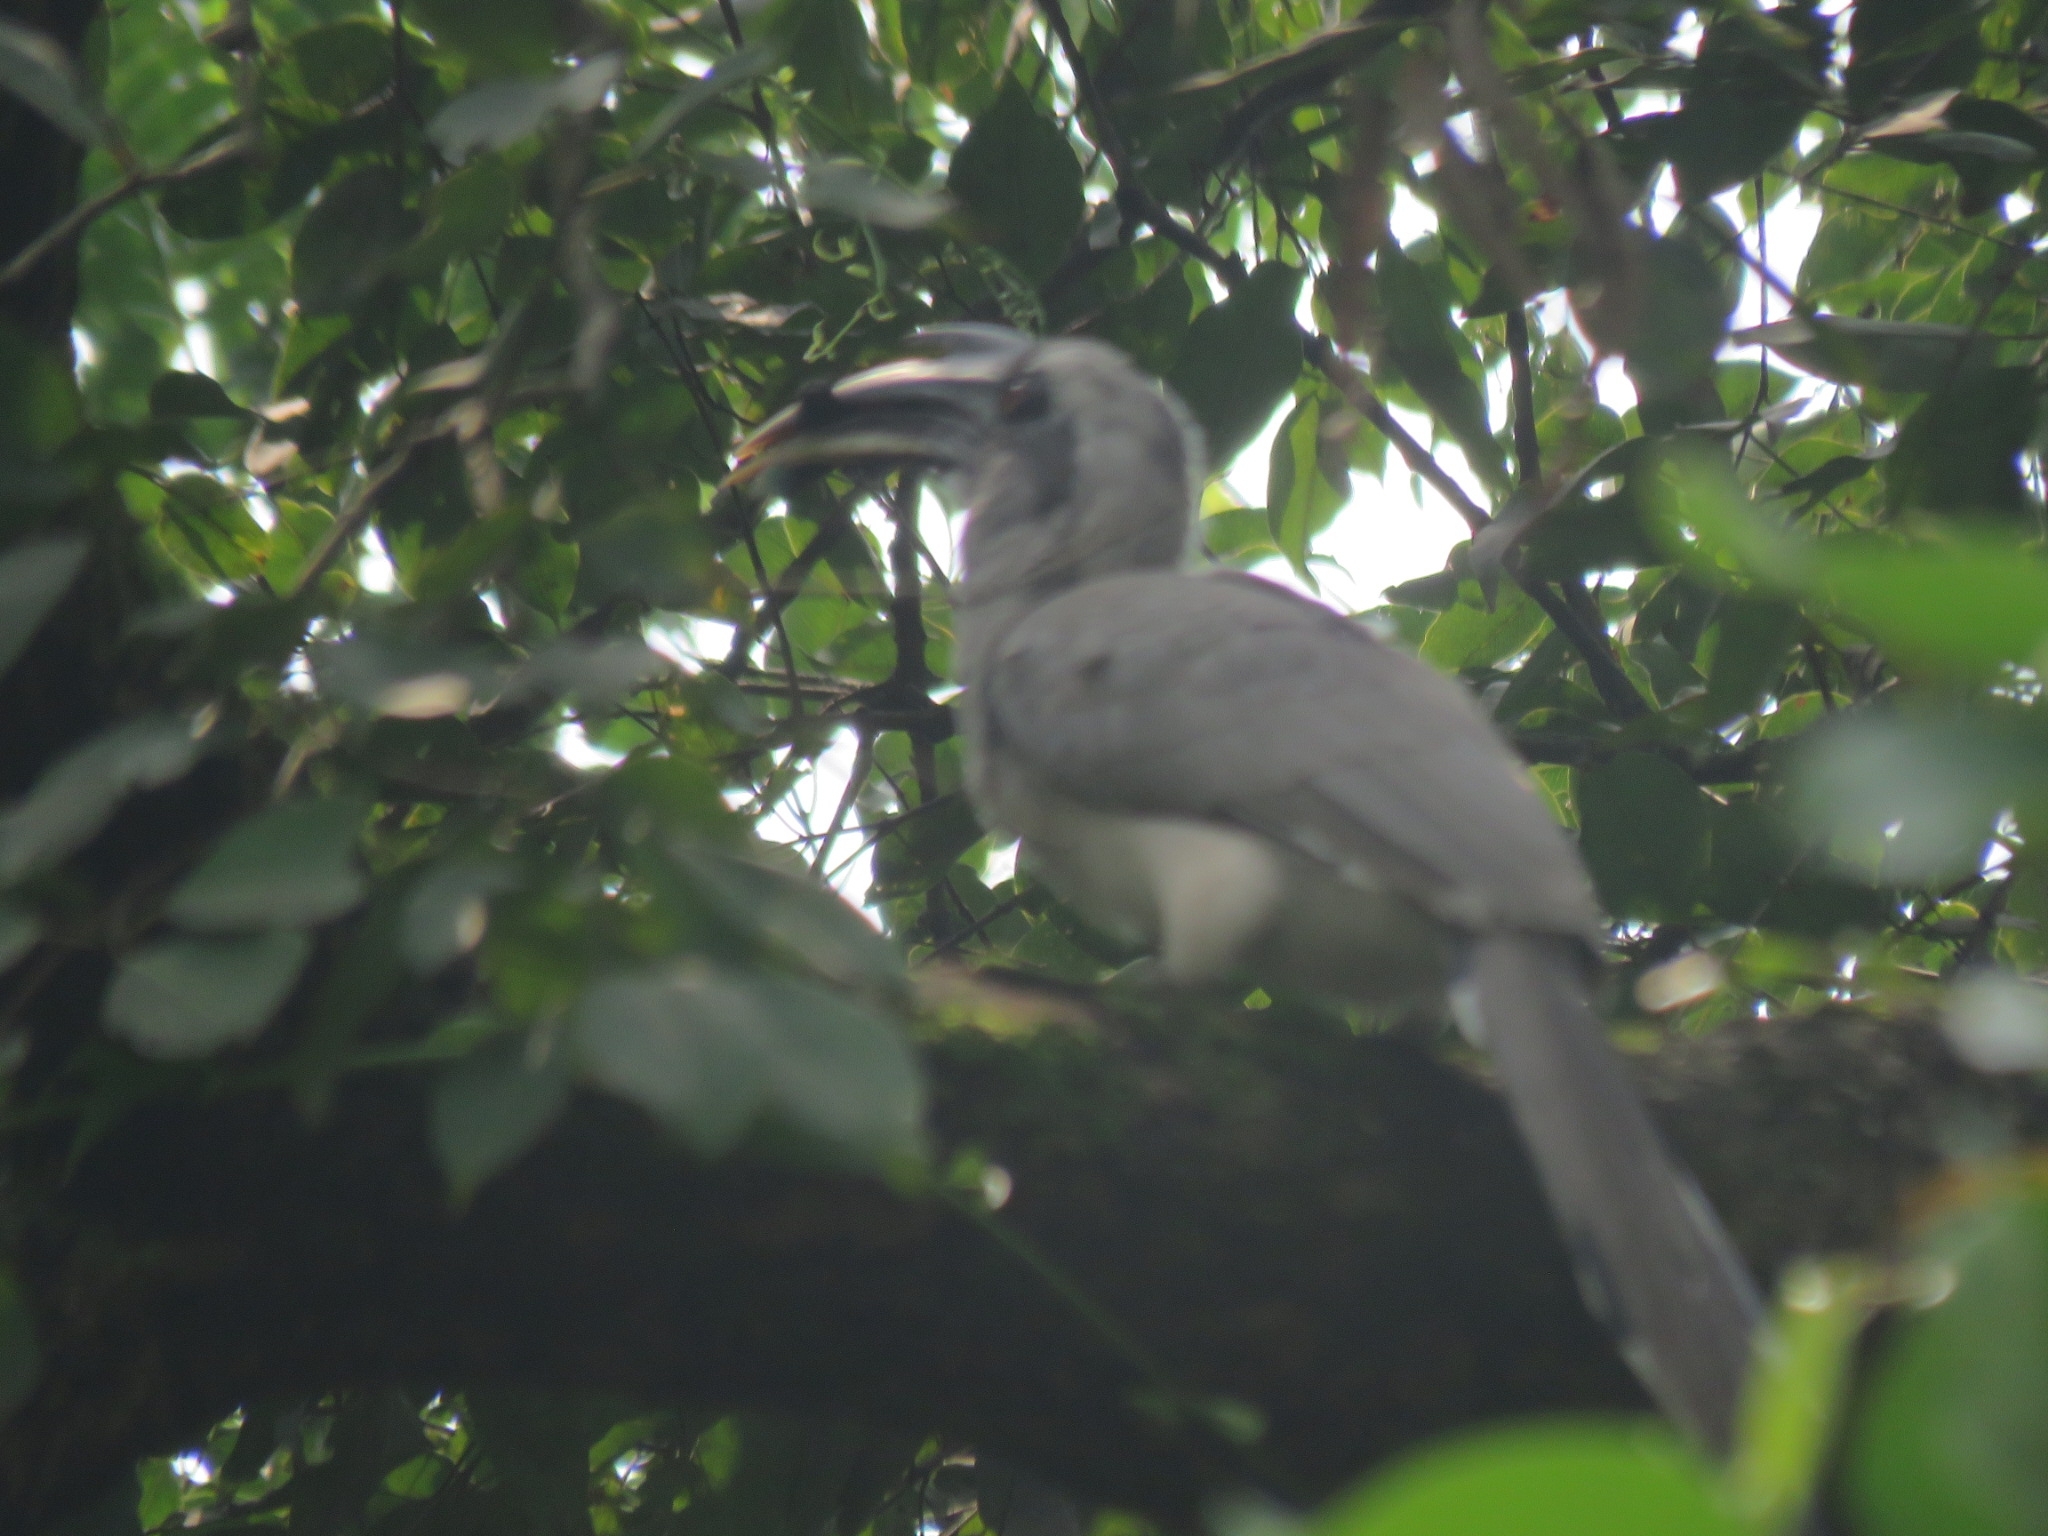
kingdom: Animalia
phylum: Chordata
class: Aves
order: Bucerotiformes
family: Bucerotidae
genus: Ocyceros
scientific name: Ocyceros birostris
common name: Indian grey hornbill
